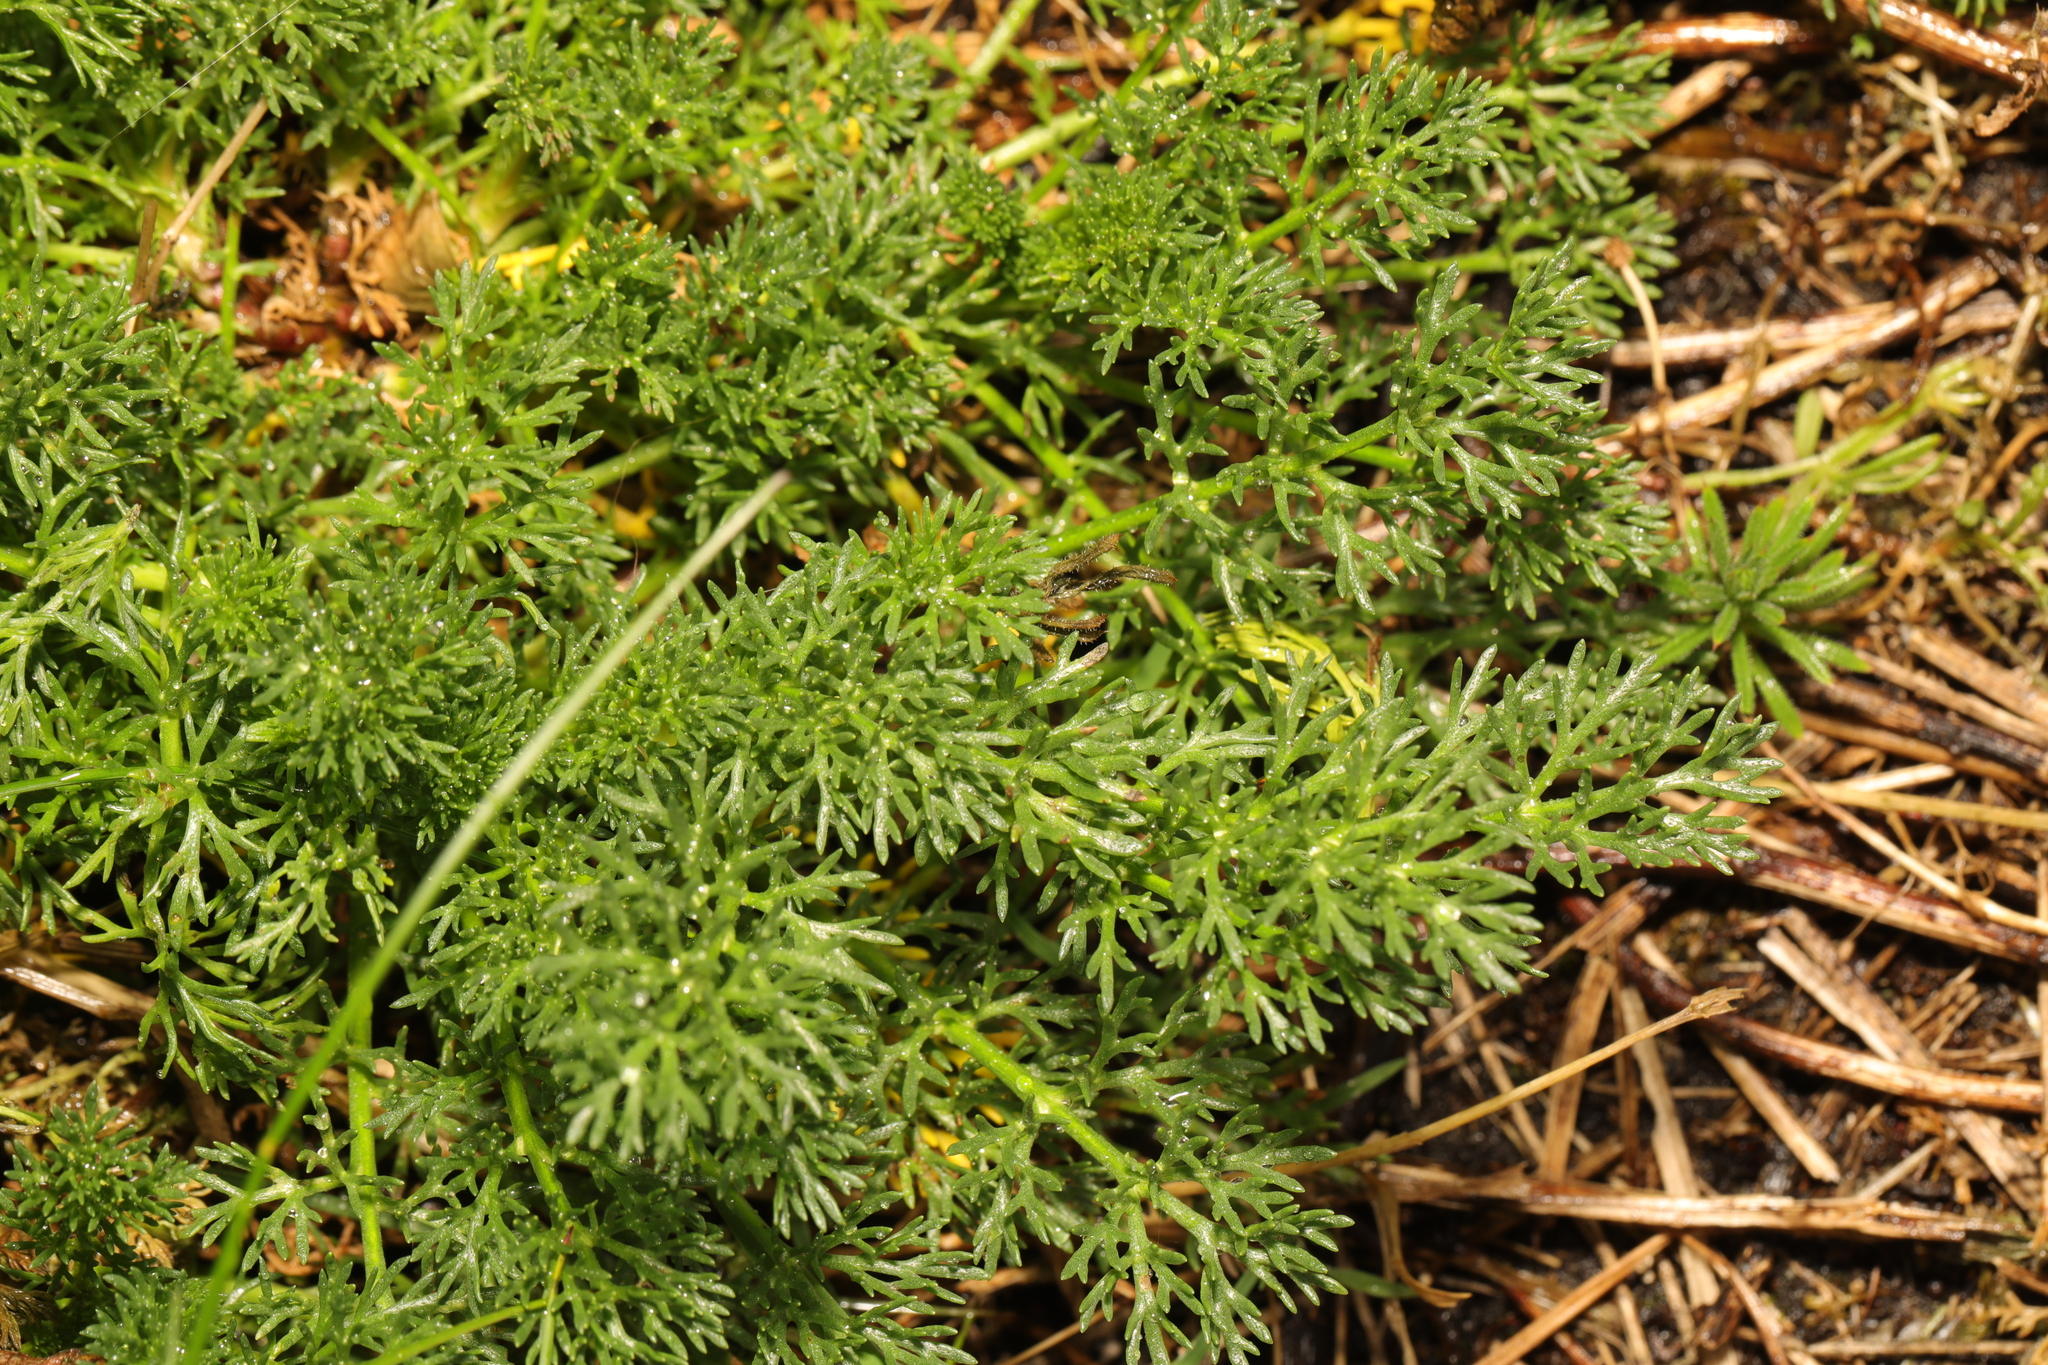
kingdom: Plantae
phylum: Tracheophyta
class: Magnoliopsida
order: Asterales
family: Asteraceae
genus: Matricaria
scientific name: Matricaria discoidea
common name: Disc mayweed
